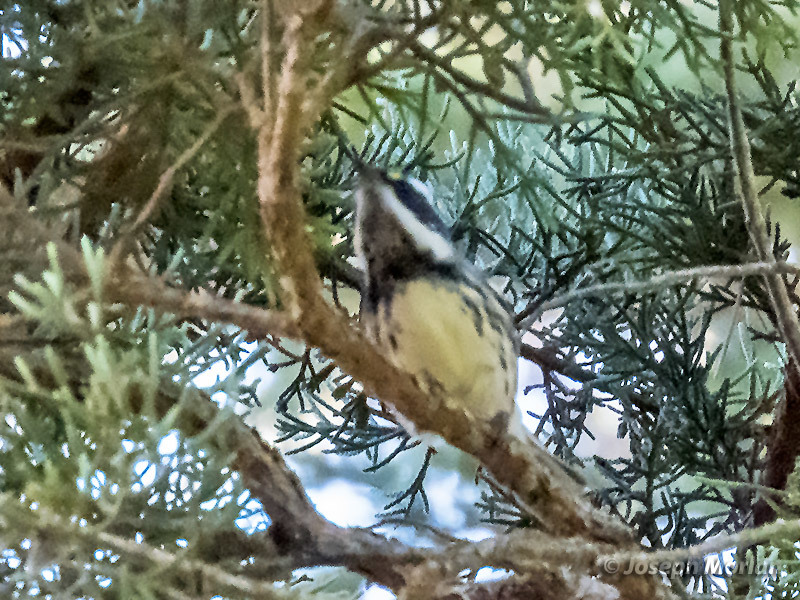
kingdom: Animalia
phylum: Chordata
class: Aves
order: Passeriformes
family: Parulidae
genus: Setophaga
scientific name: Setophaga nigrescens
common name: Black-throated gray warbler
